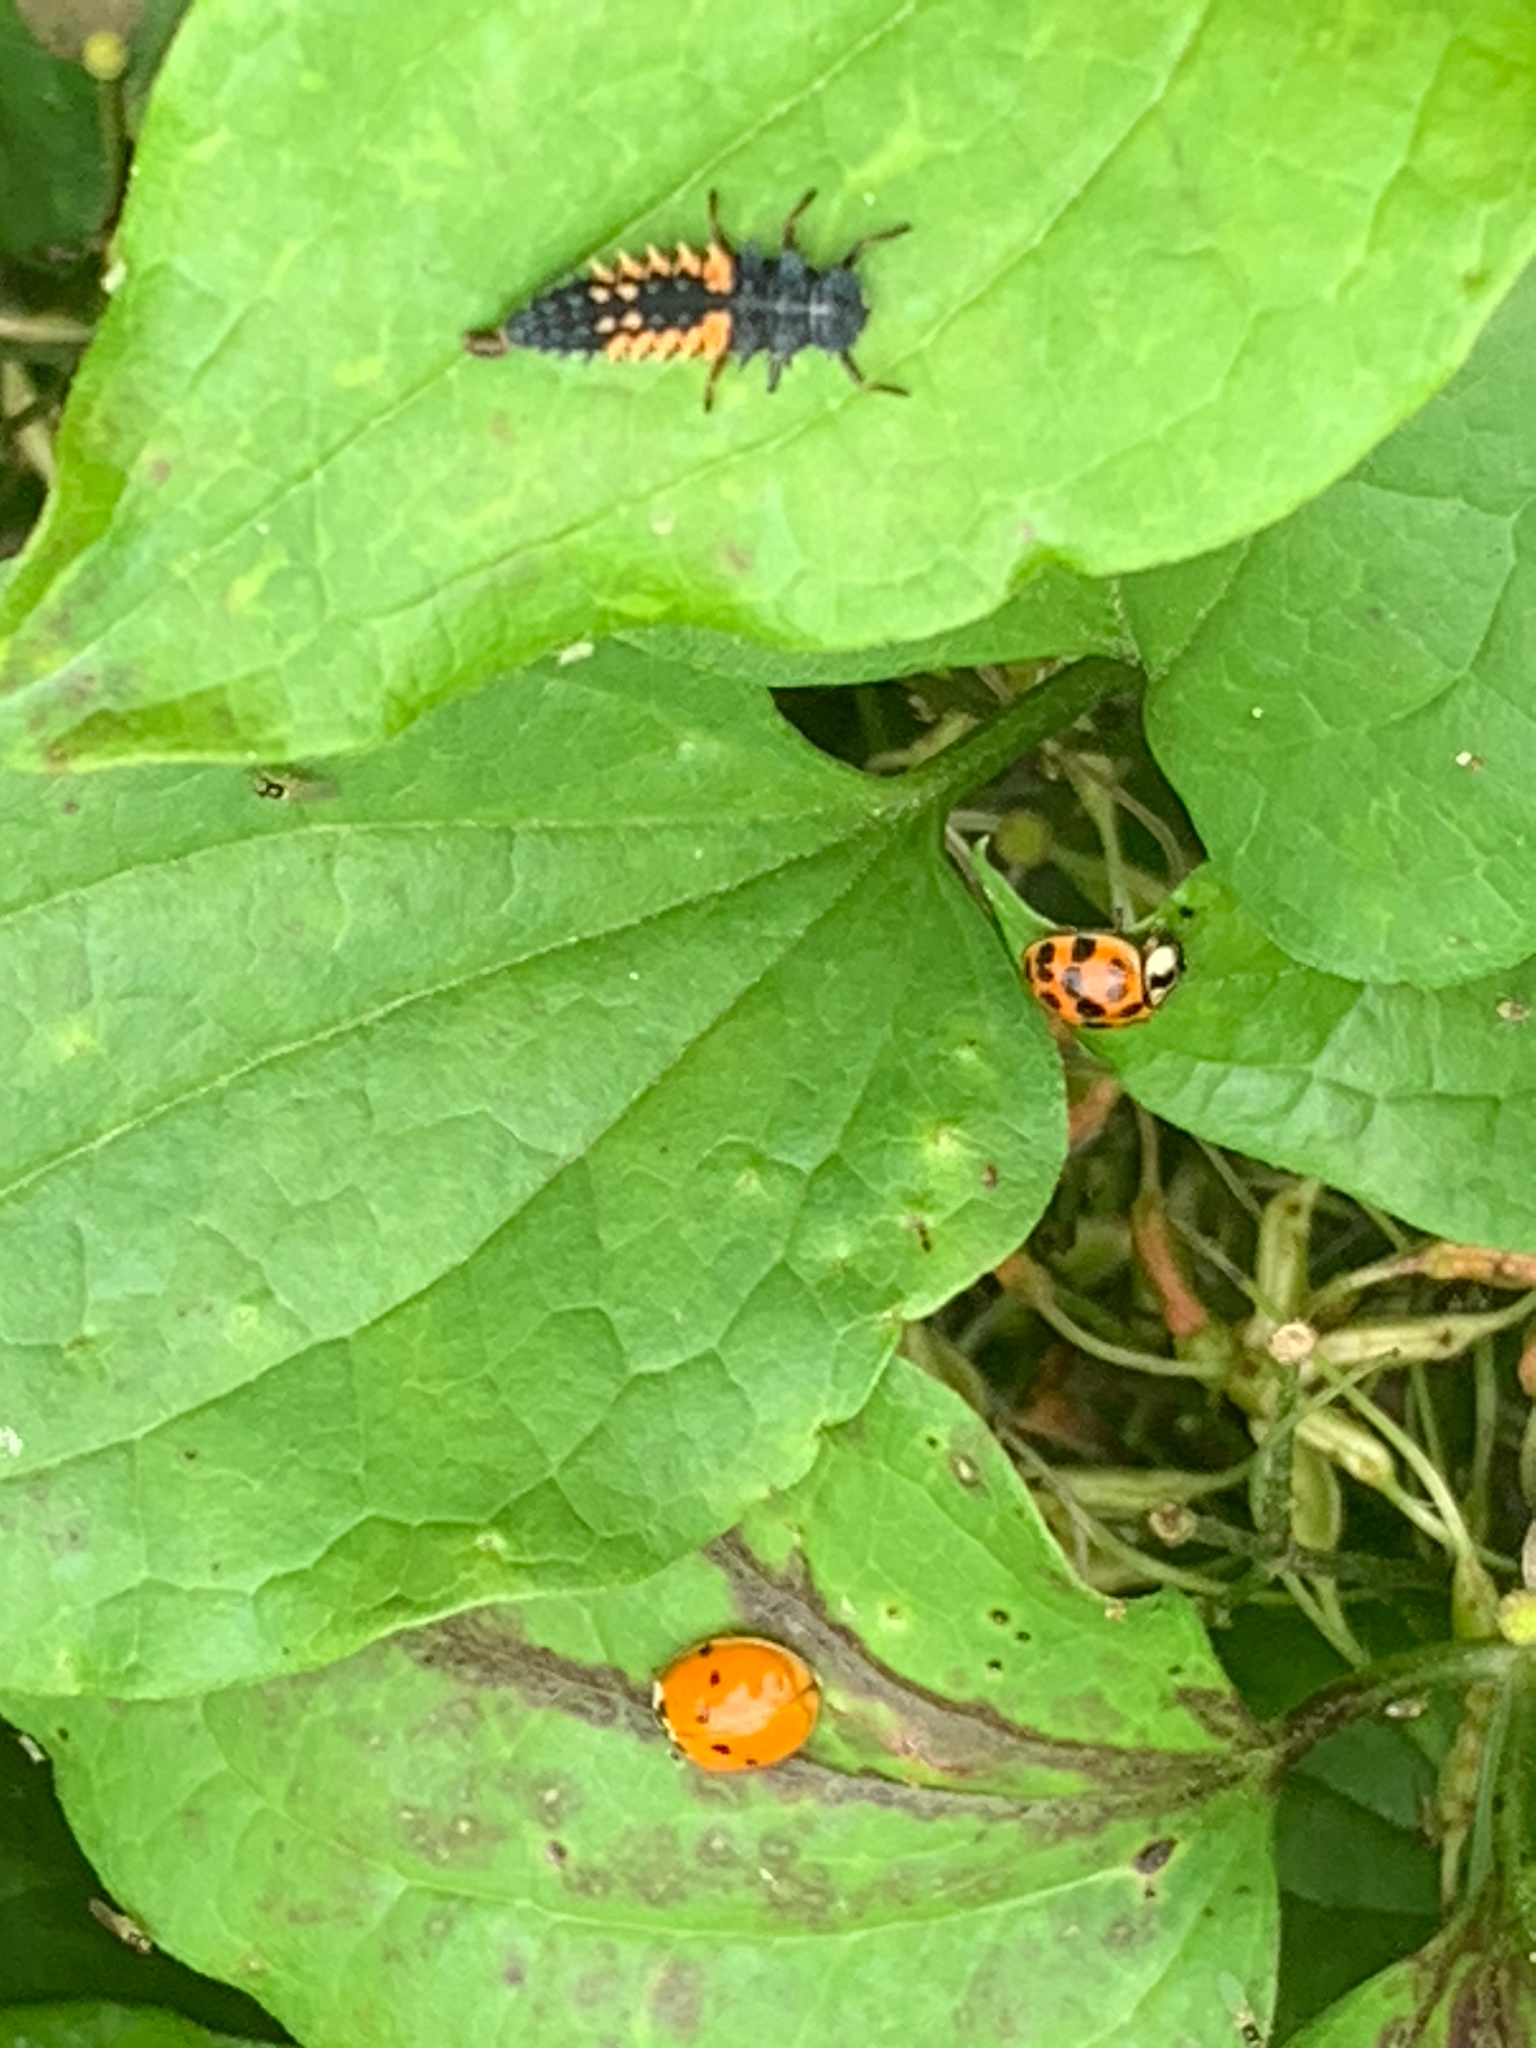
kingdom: Animalia
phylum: Arthropoda
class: Insecta
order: Coleoptera
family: Coccinellidae
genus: Harmonia
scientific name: Harmonia axyridis
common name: Harlequin ladybird
